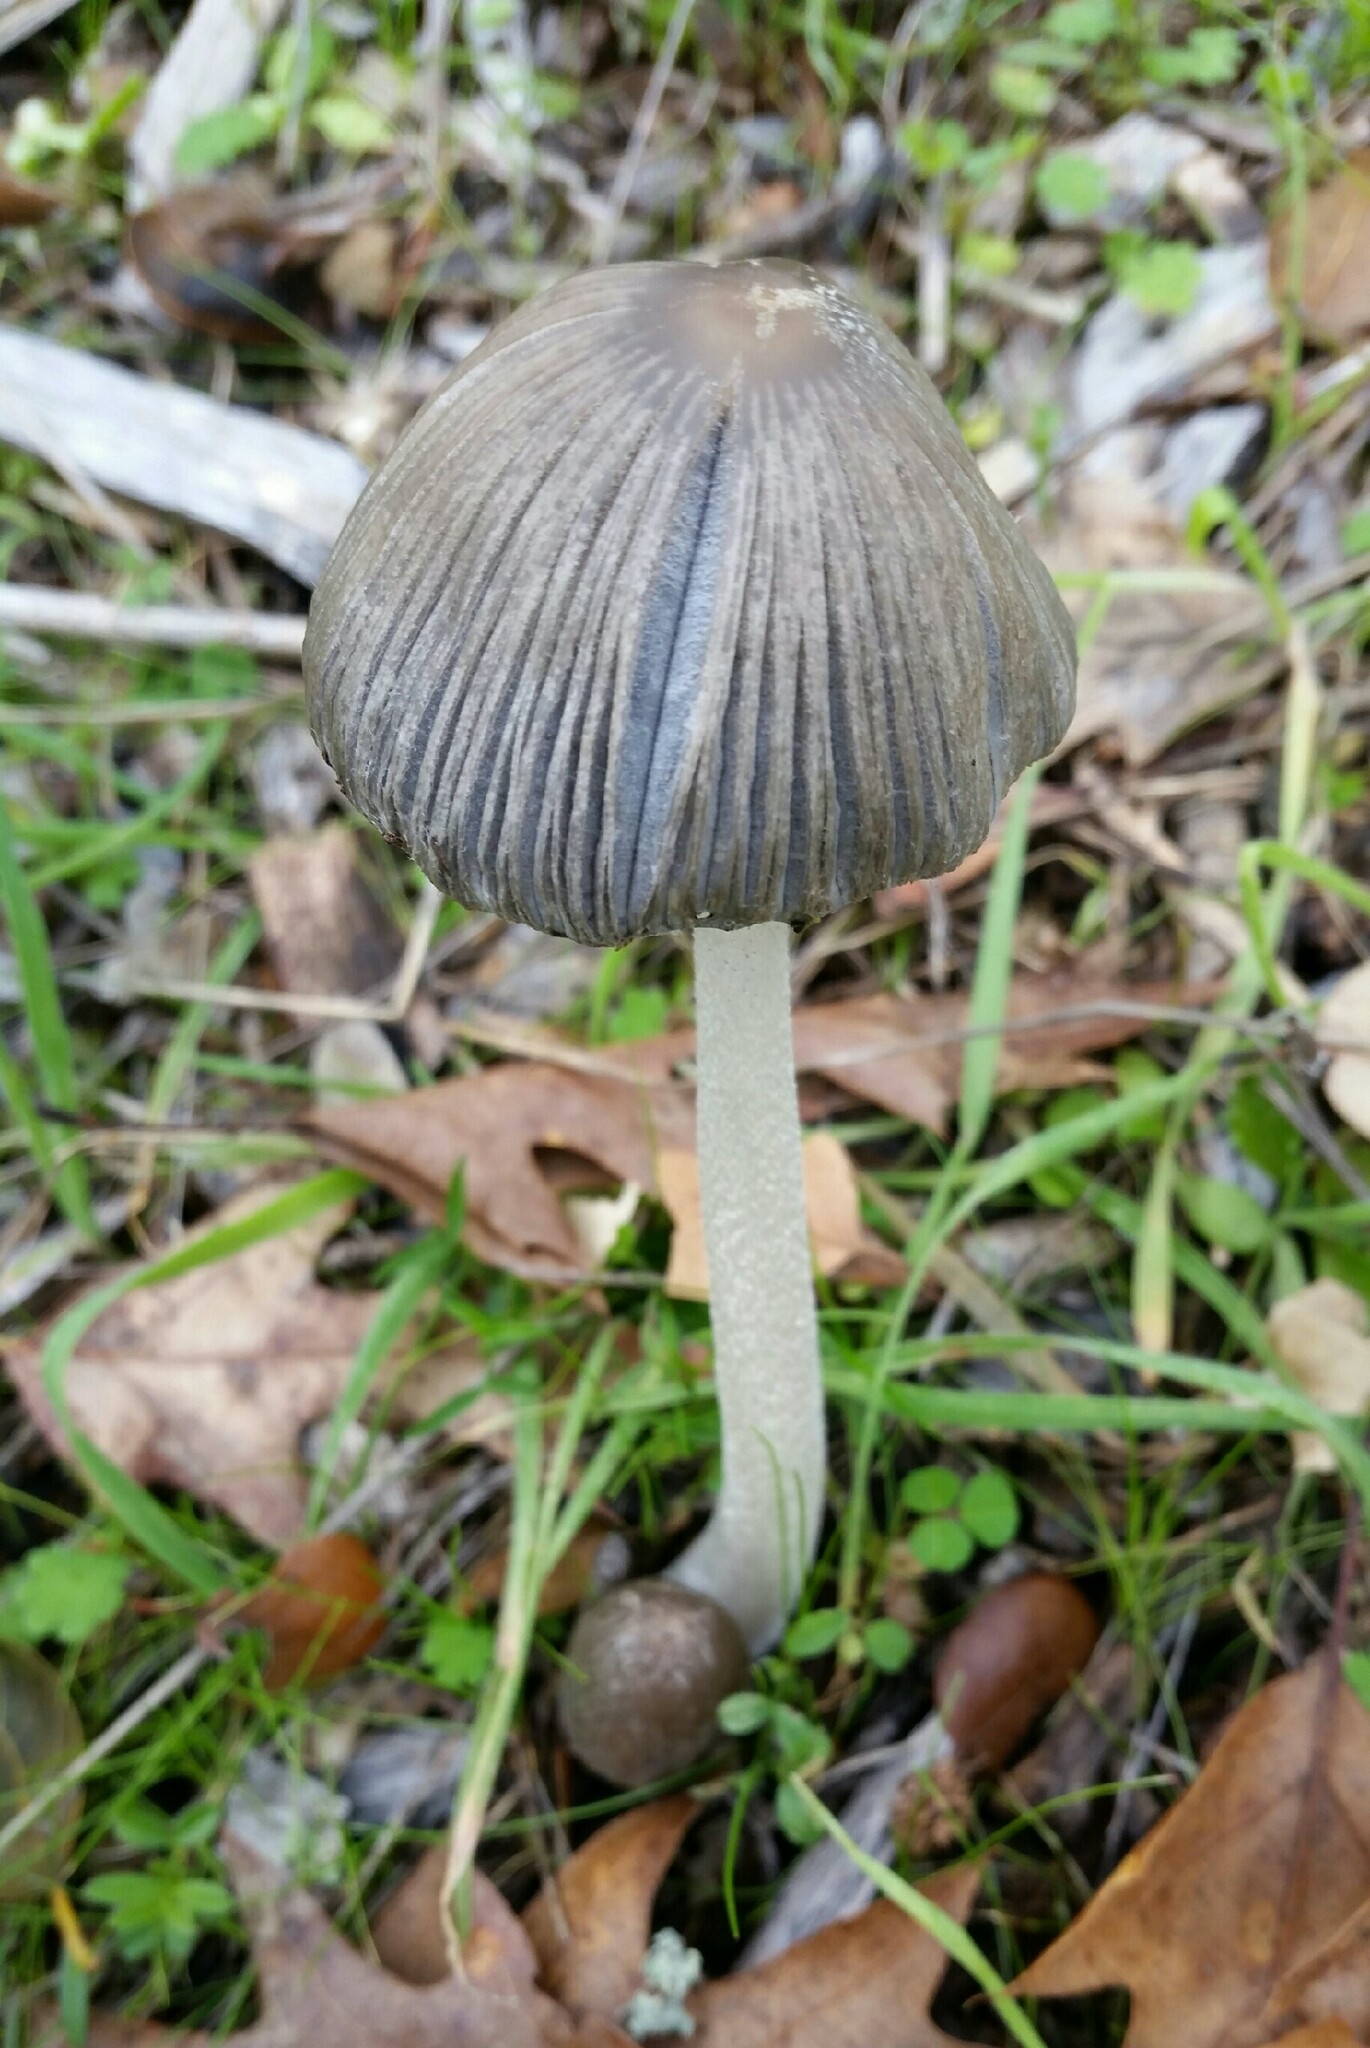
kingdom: Fungi
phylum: Basidiomycota
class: Agaricomycetes
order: Agaricales
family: Psathyrellaceae
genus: Tulosesus
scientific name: Tulosesus impatiens
